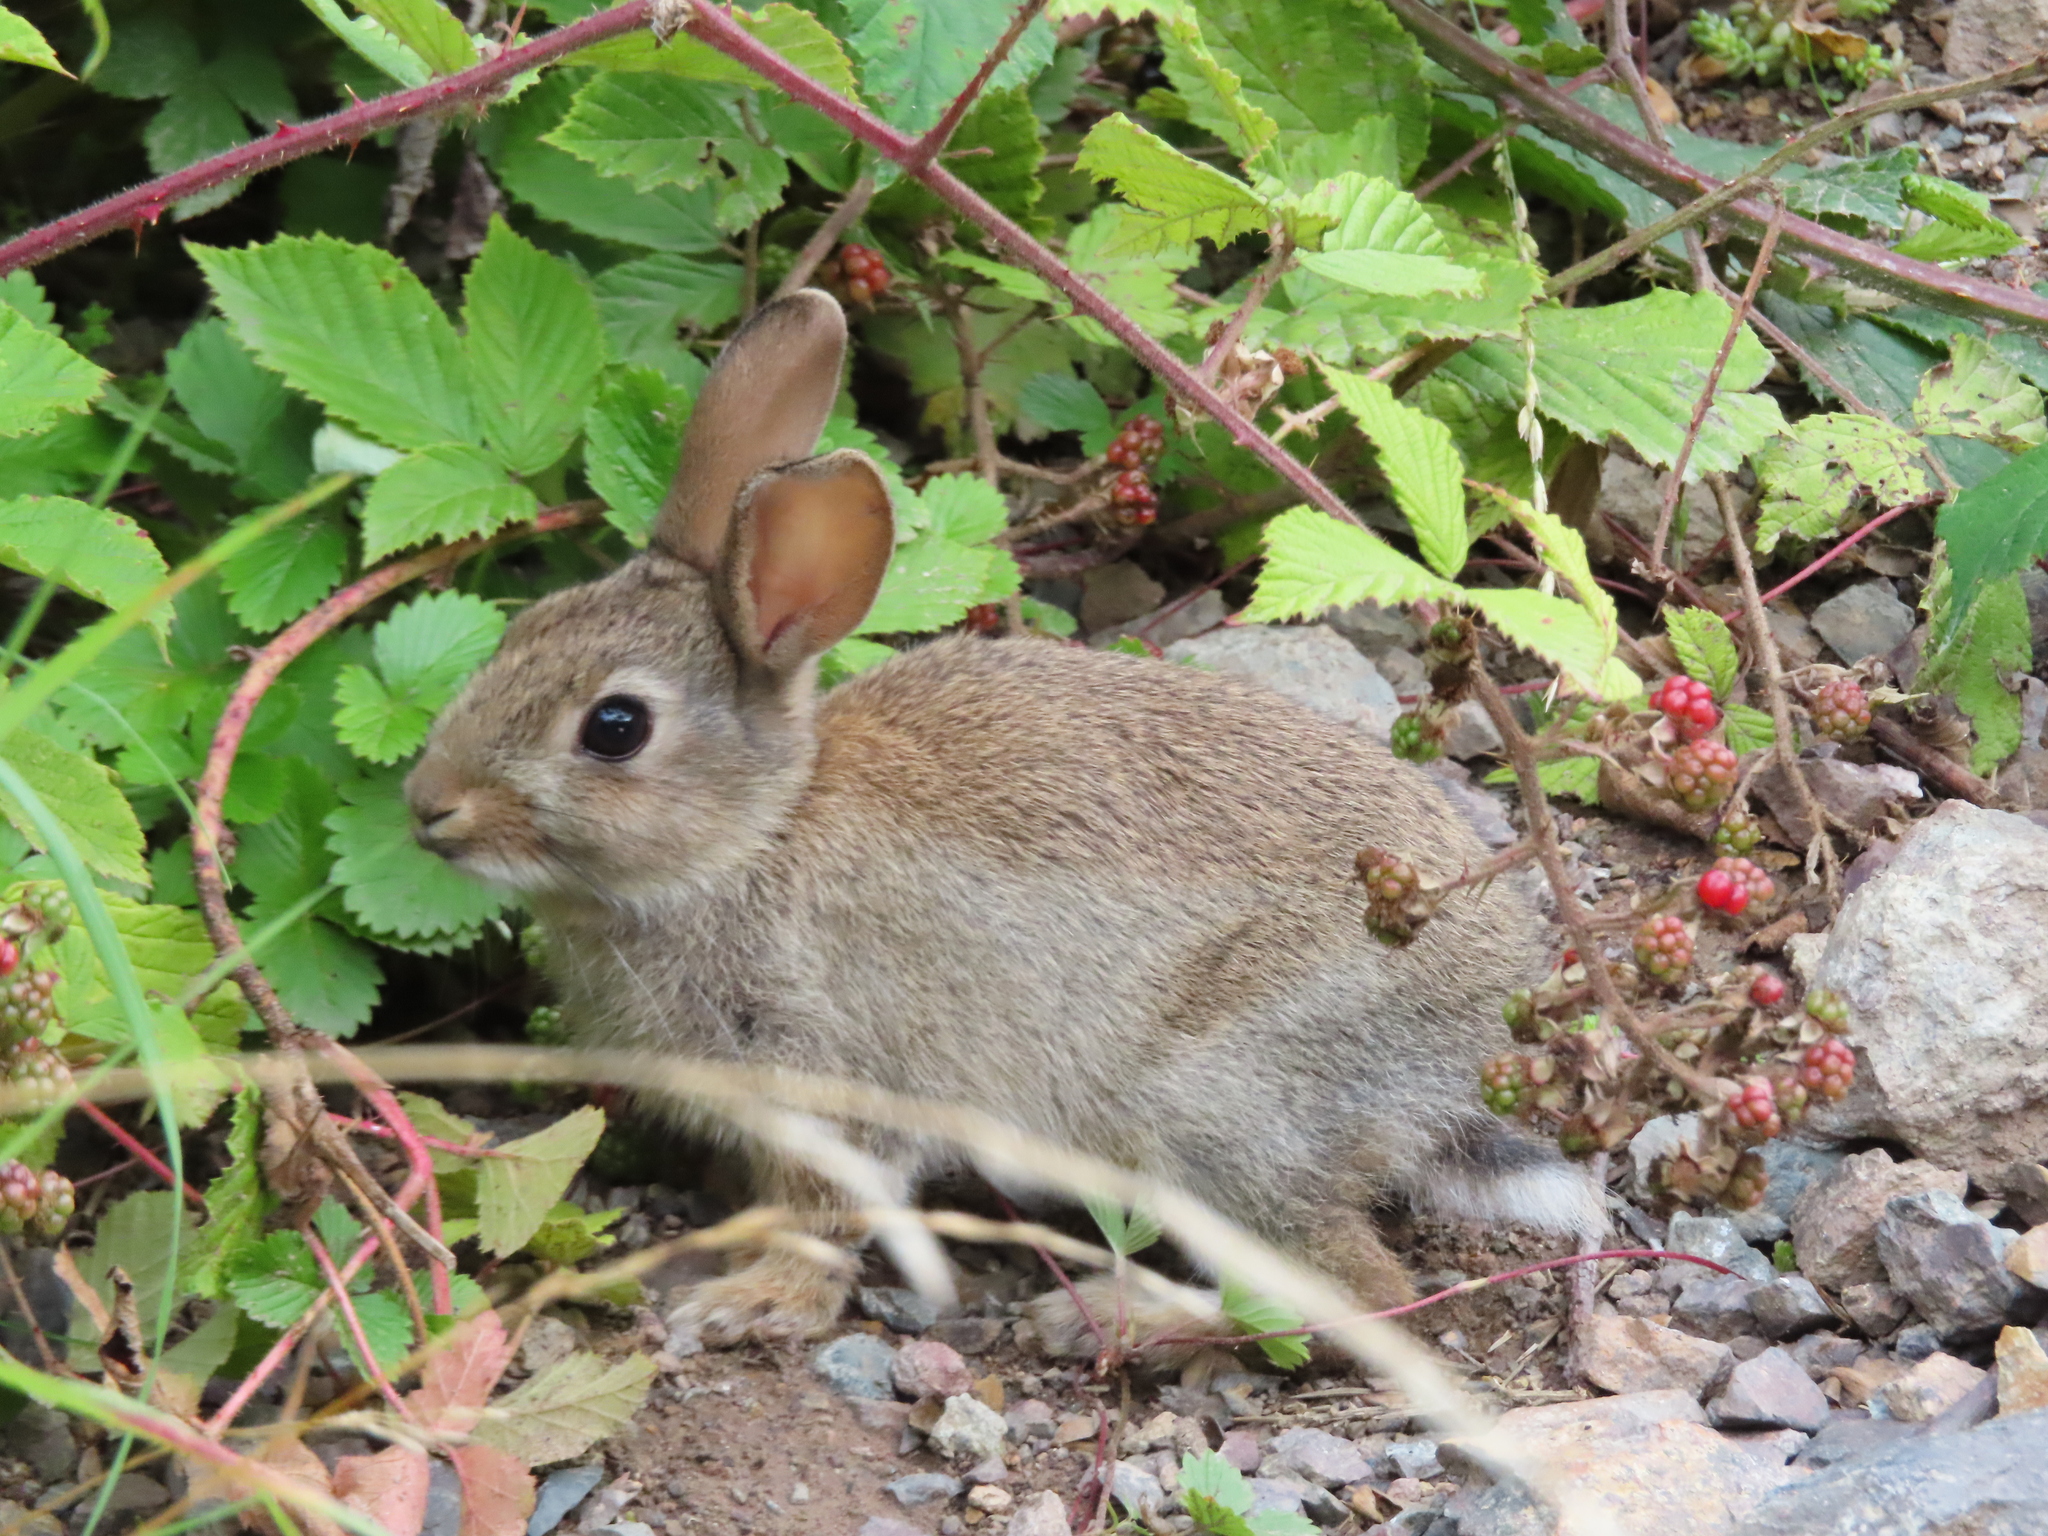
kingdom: Animalia
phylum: Chordata
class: Mammalia
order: Lagomorpha
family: Leporidae
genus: Oryctolagus
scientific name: Oryctolagus cuniculus
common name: European rabbit
